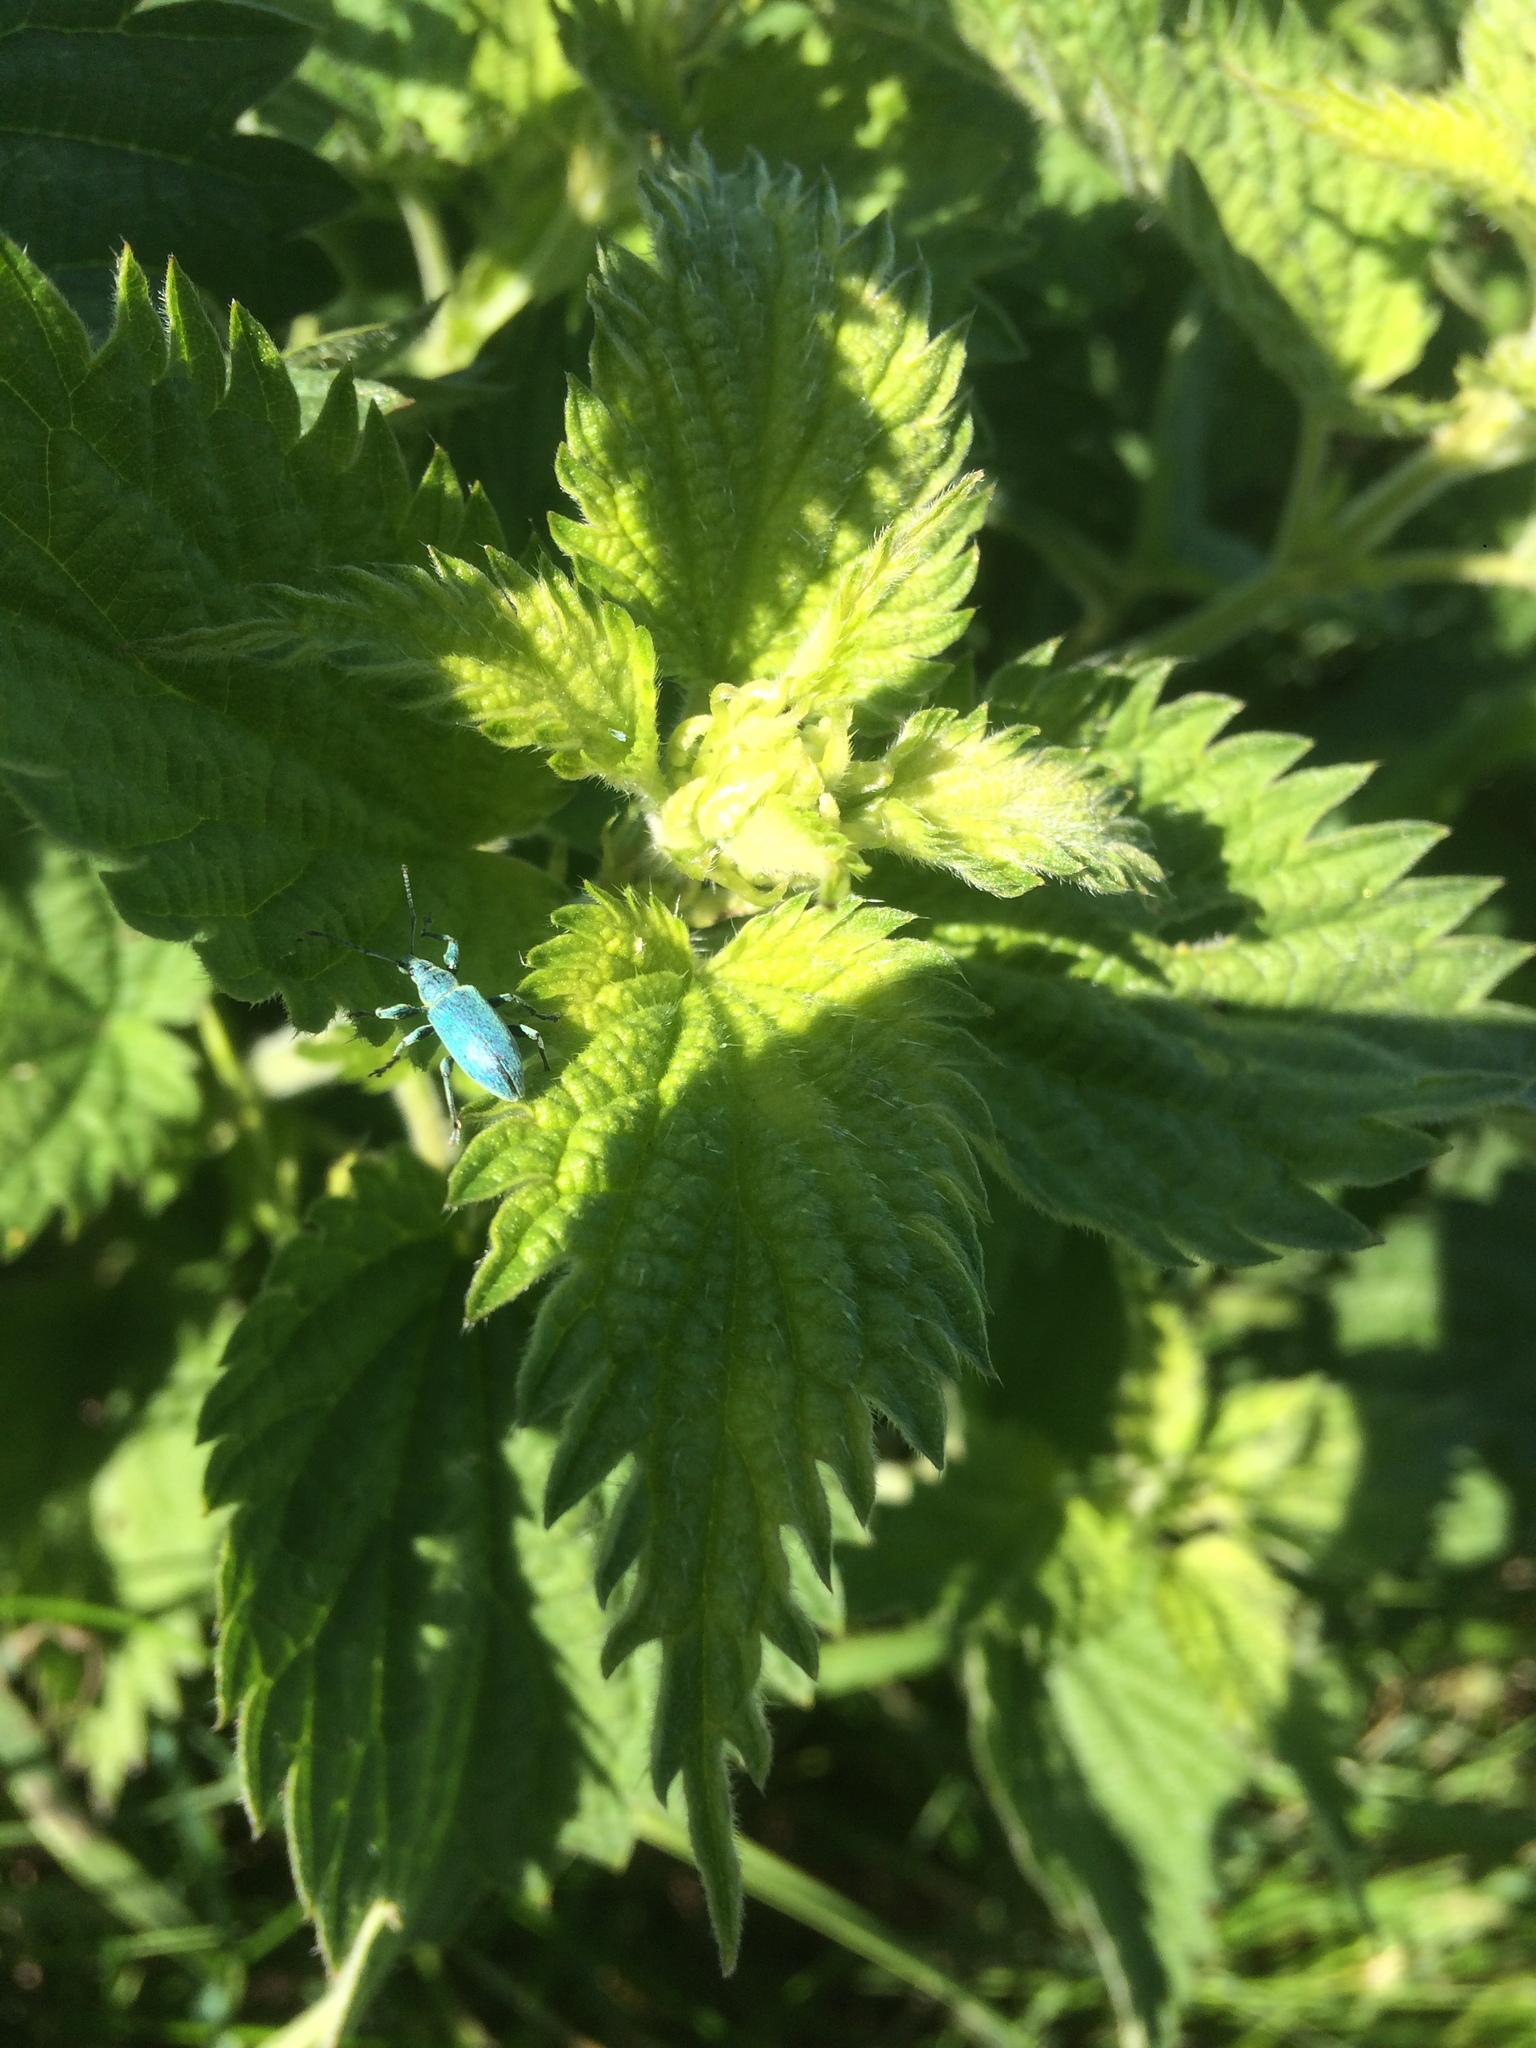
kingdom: Animalia
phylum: Arthropoda
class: Insecta
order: Coleoptera
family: Curculionidae
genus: Phyllobius
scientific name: Phyllobius pomaceus
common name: Green nettle weevil
